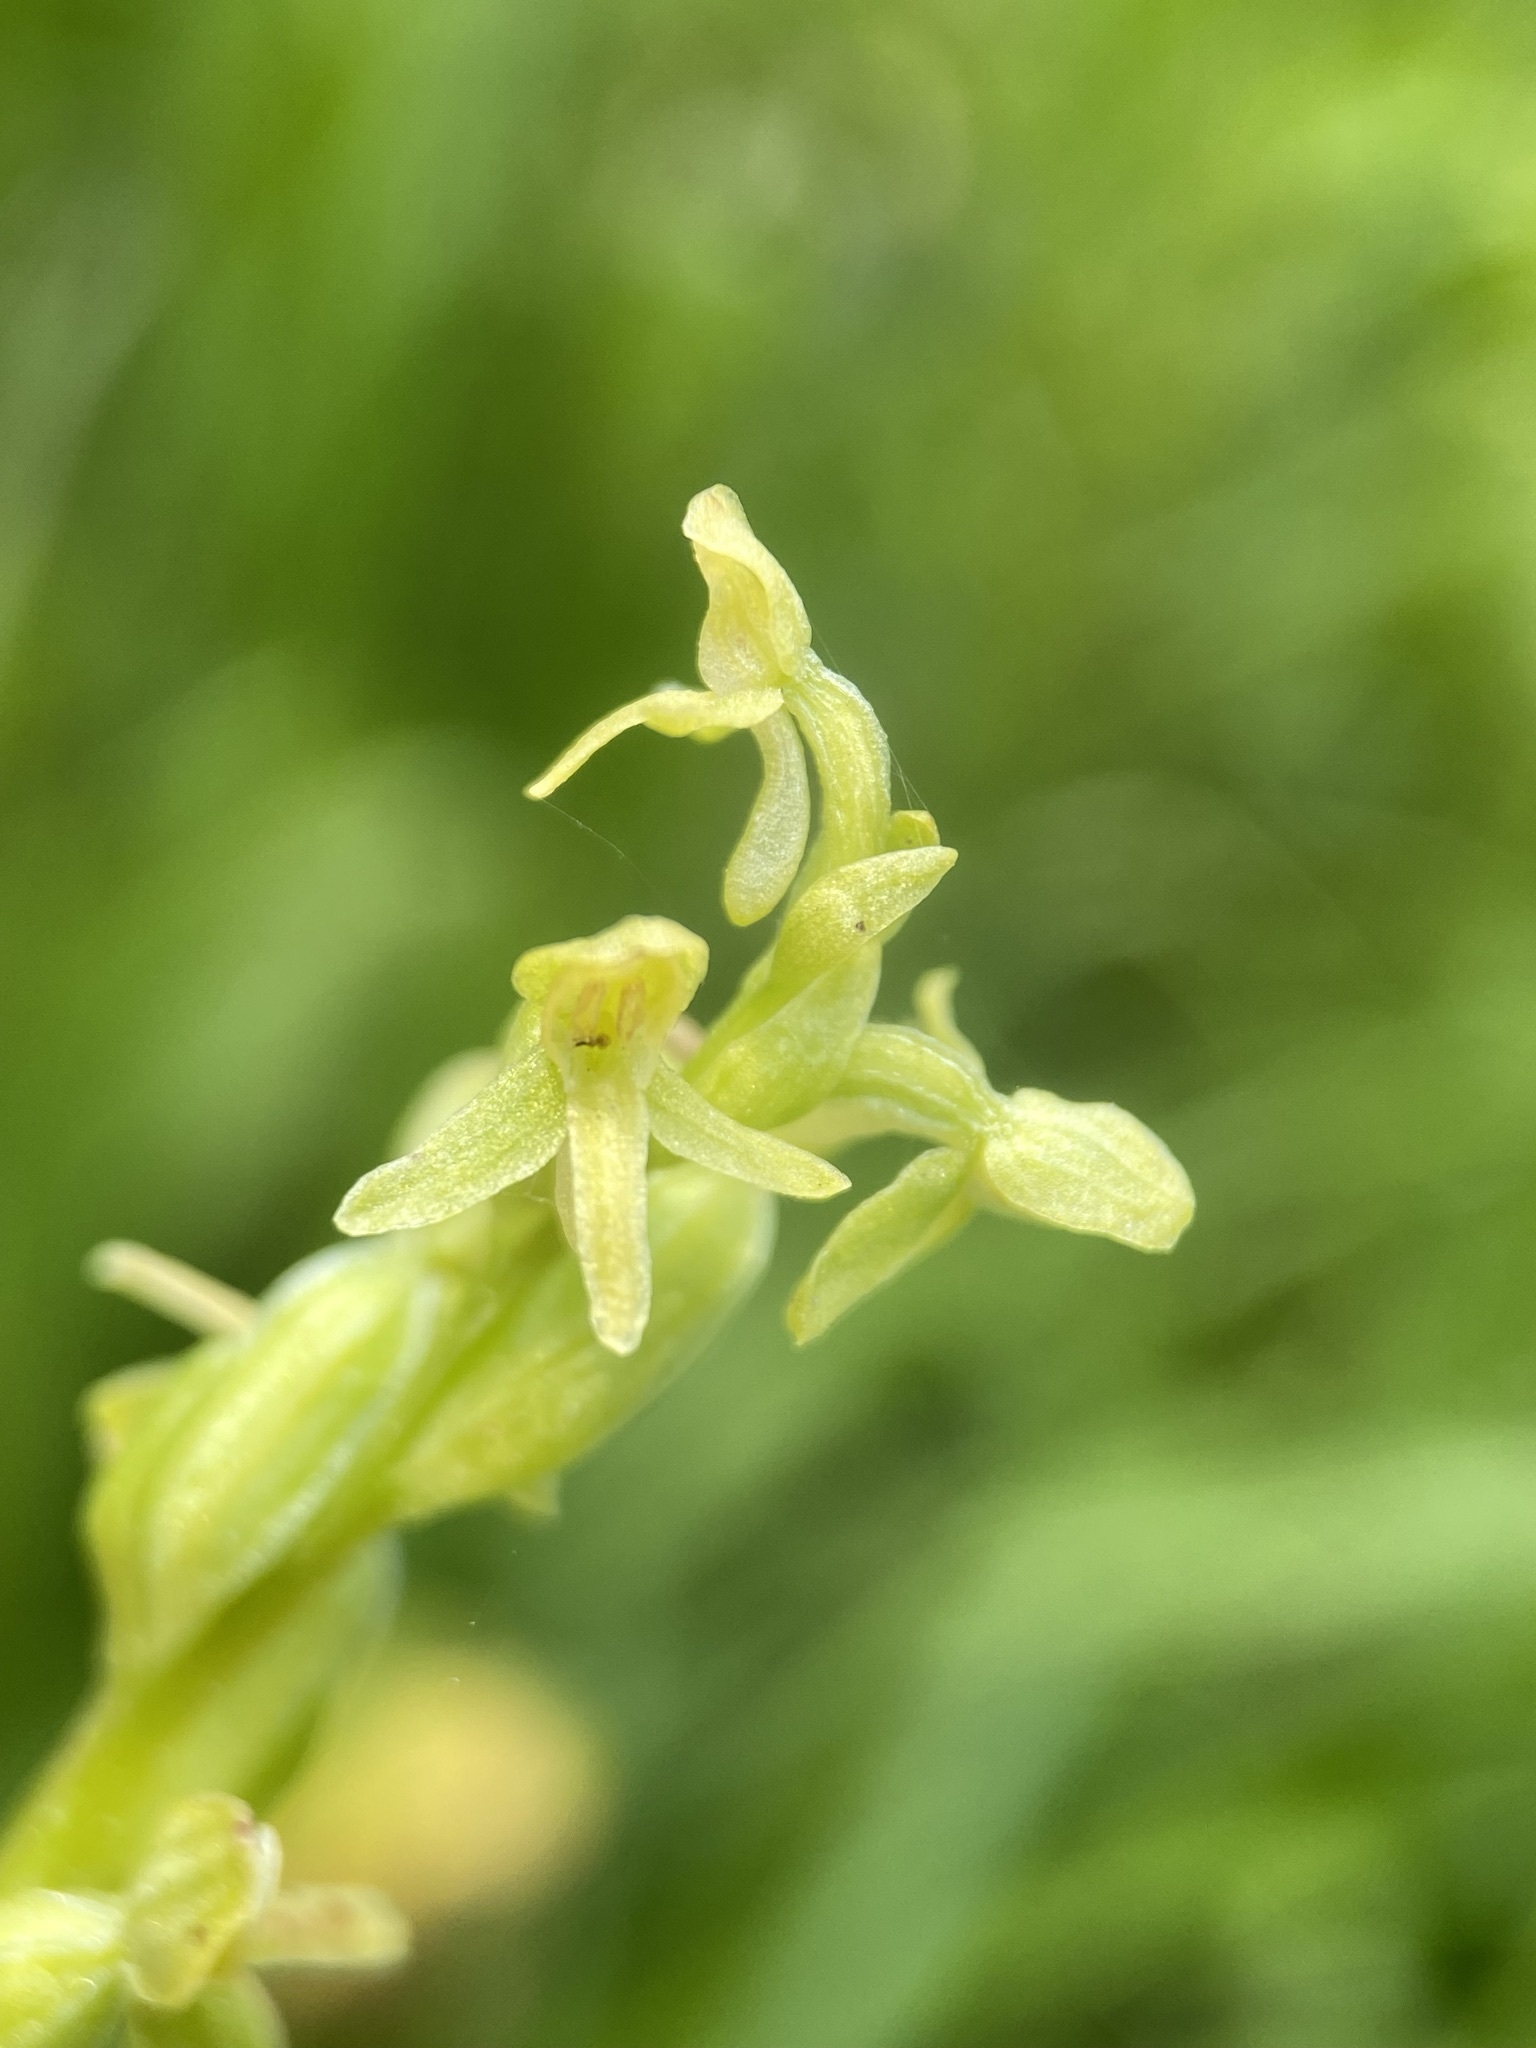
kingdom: Plantae
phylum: Tracheophyta
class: Liliopsida
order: Asparagales
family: Orchidaceae
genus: Platanthera
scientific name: Platanthera stricta
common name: Slender bog orchid
